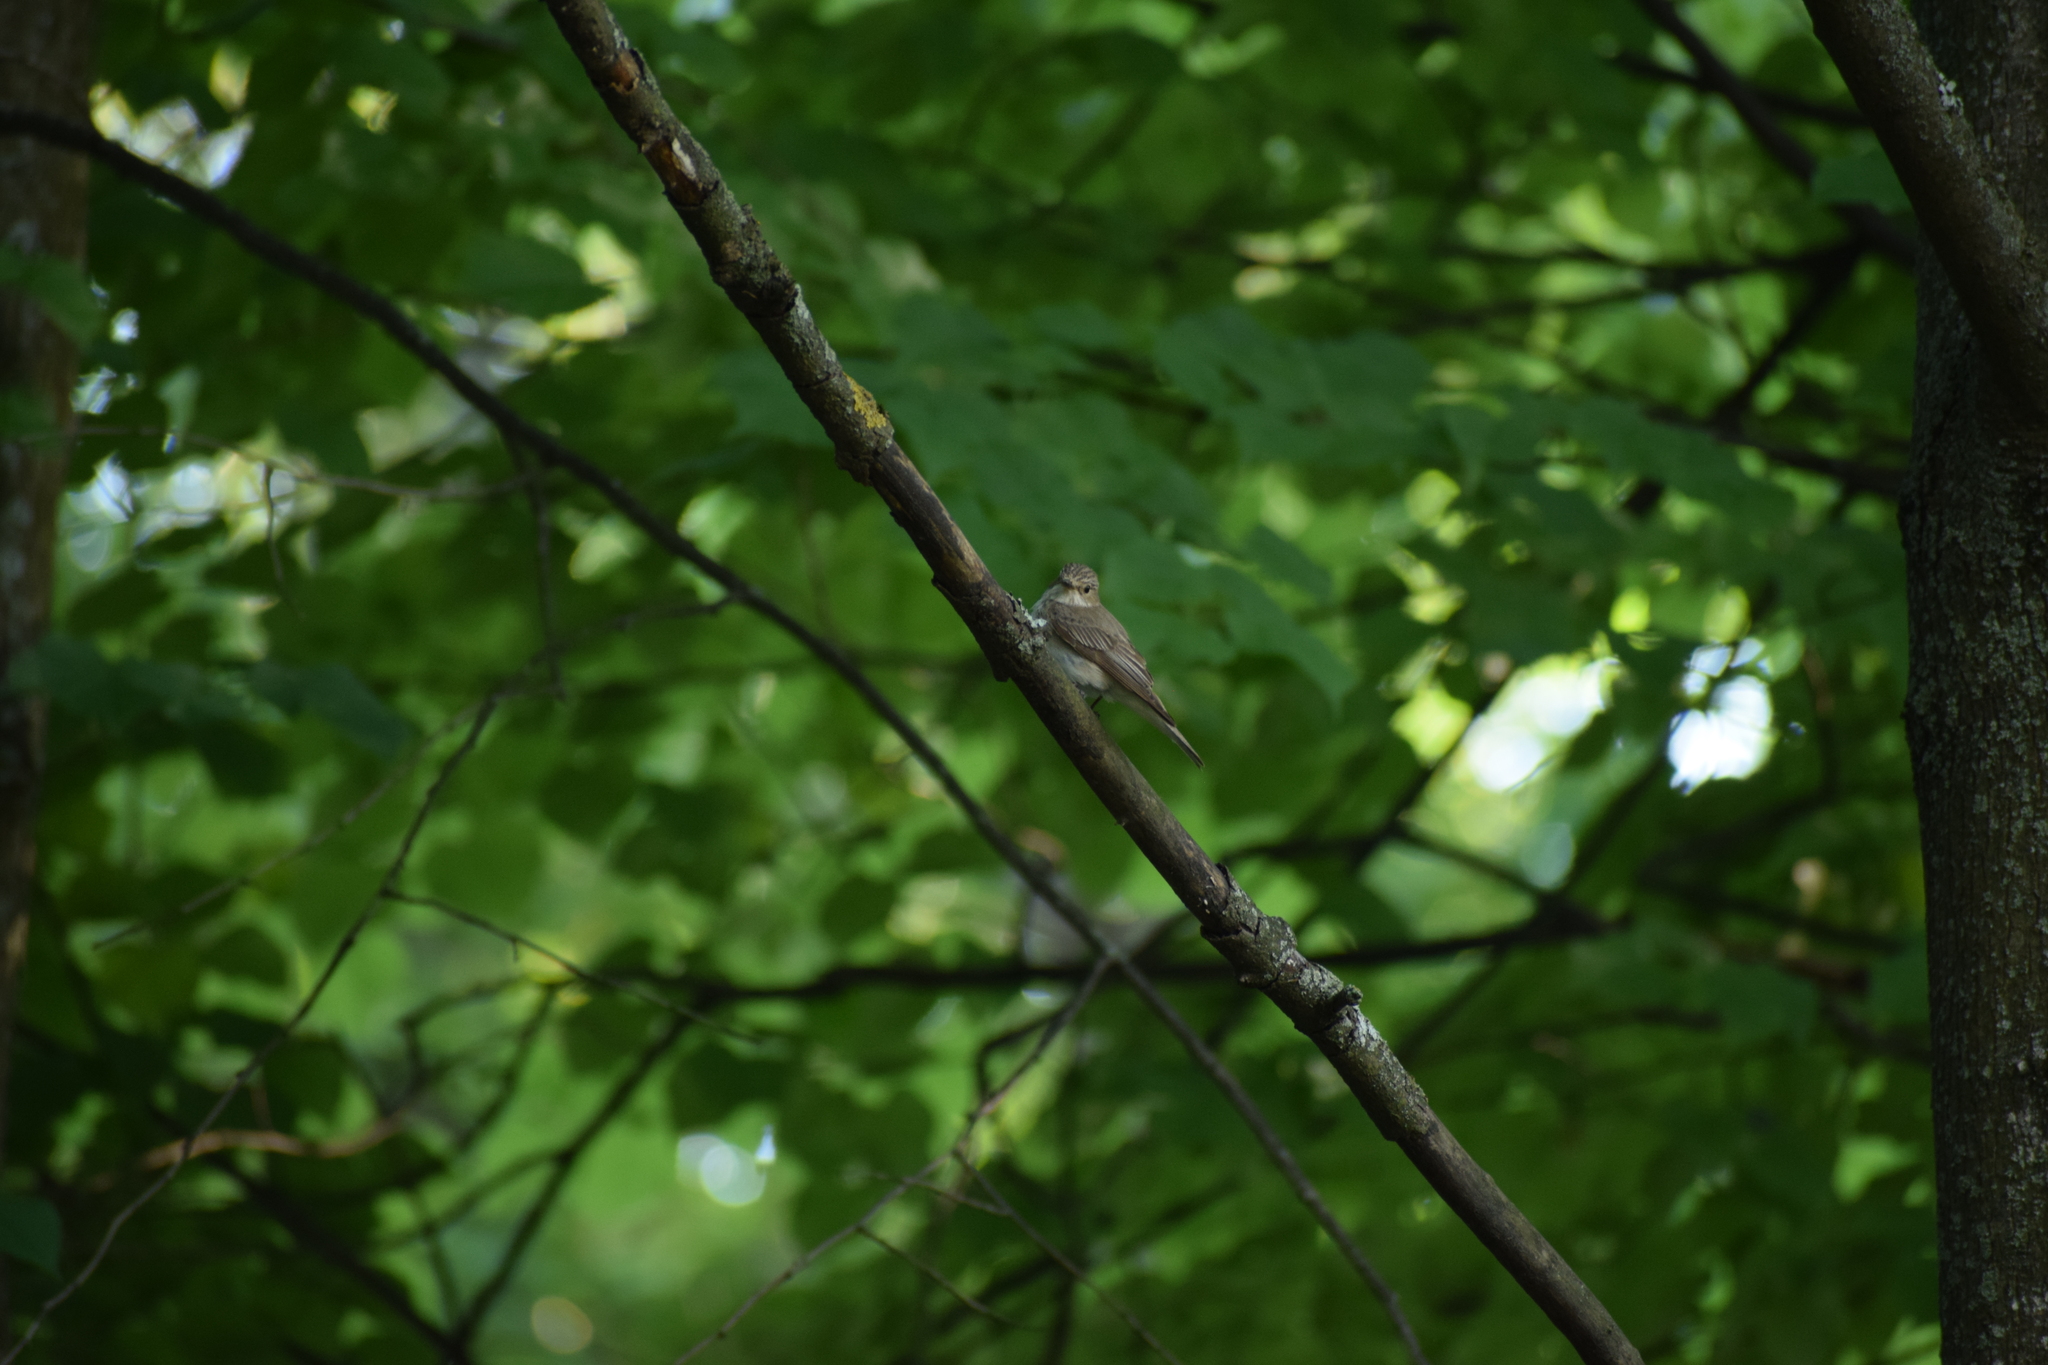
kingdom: Animalia
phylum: Chordata
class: Aves
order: Passeriformes
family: Muscicapidae
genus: Muscicapa
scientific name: Muscicapa striata
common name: Spotted flycatcher
